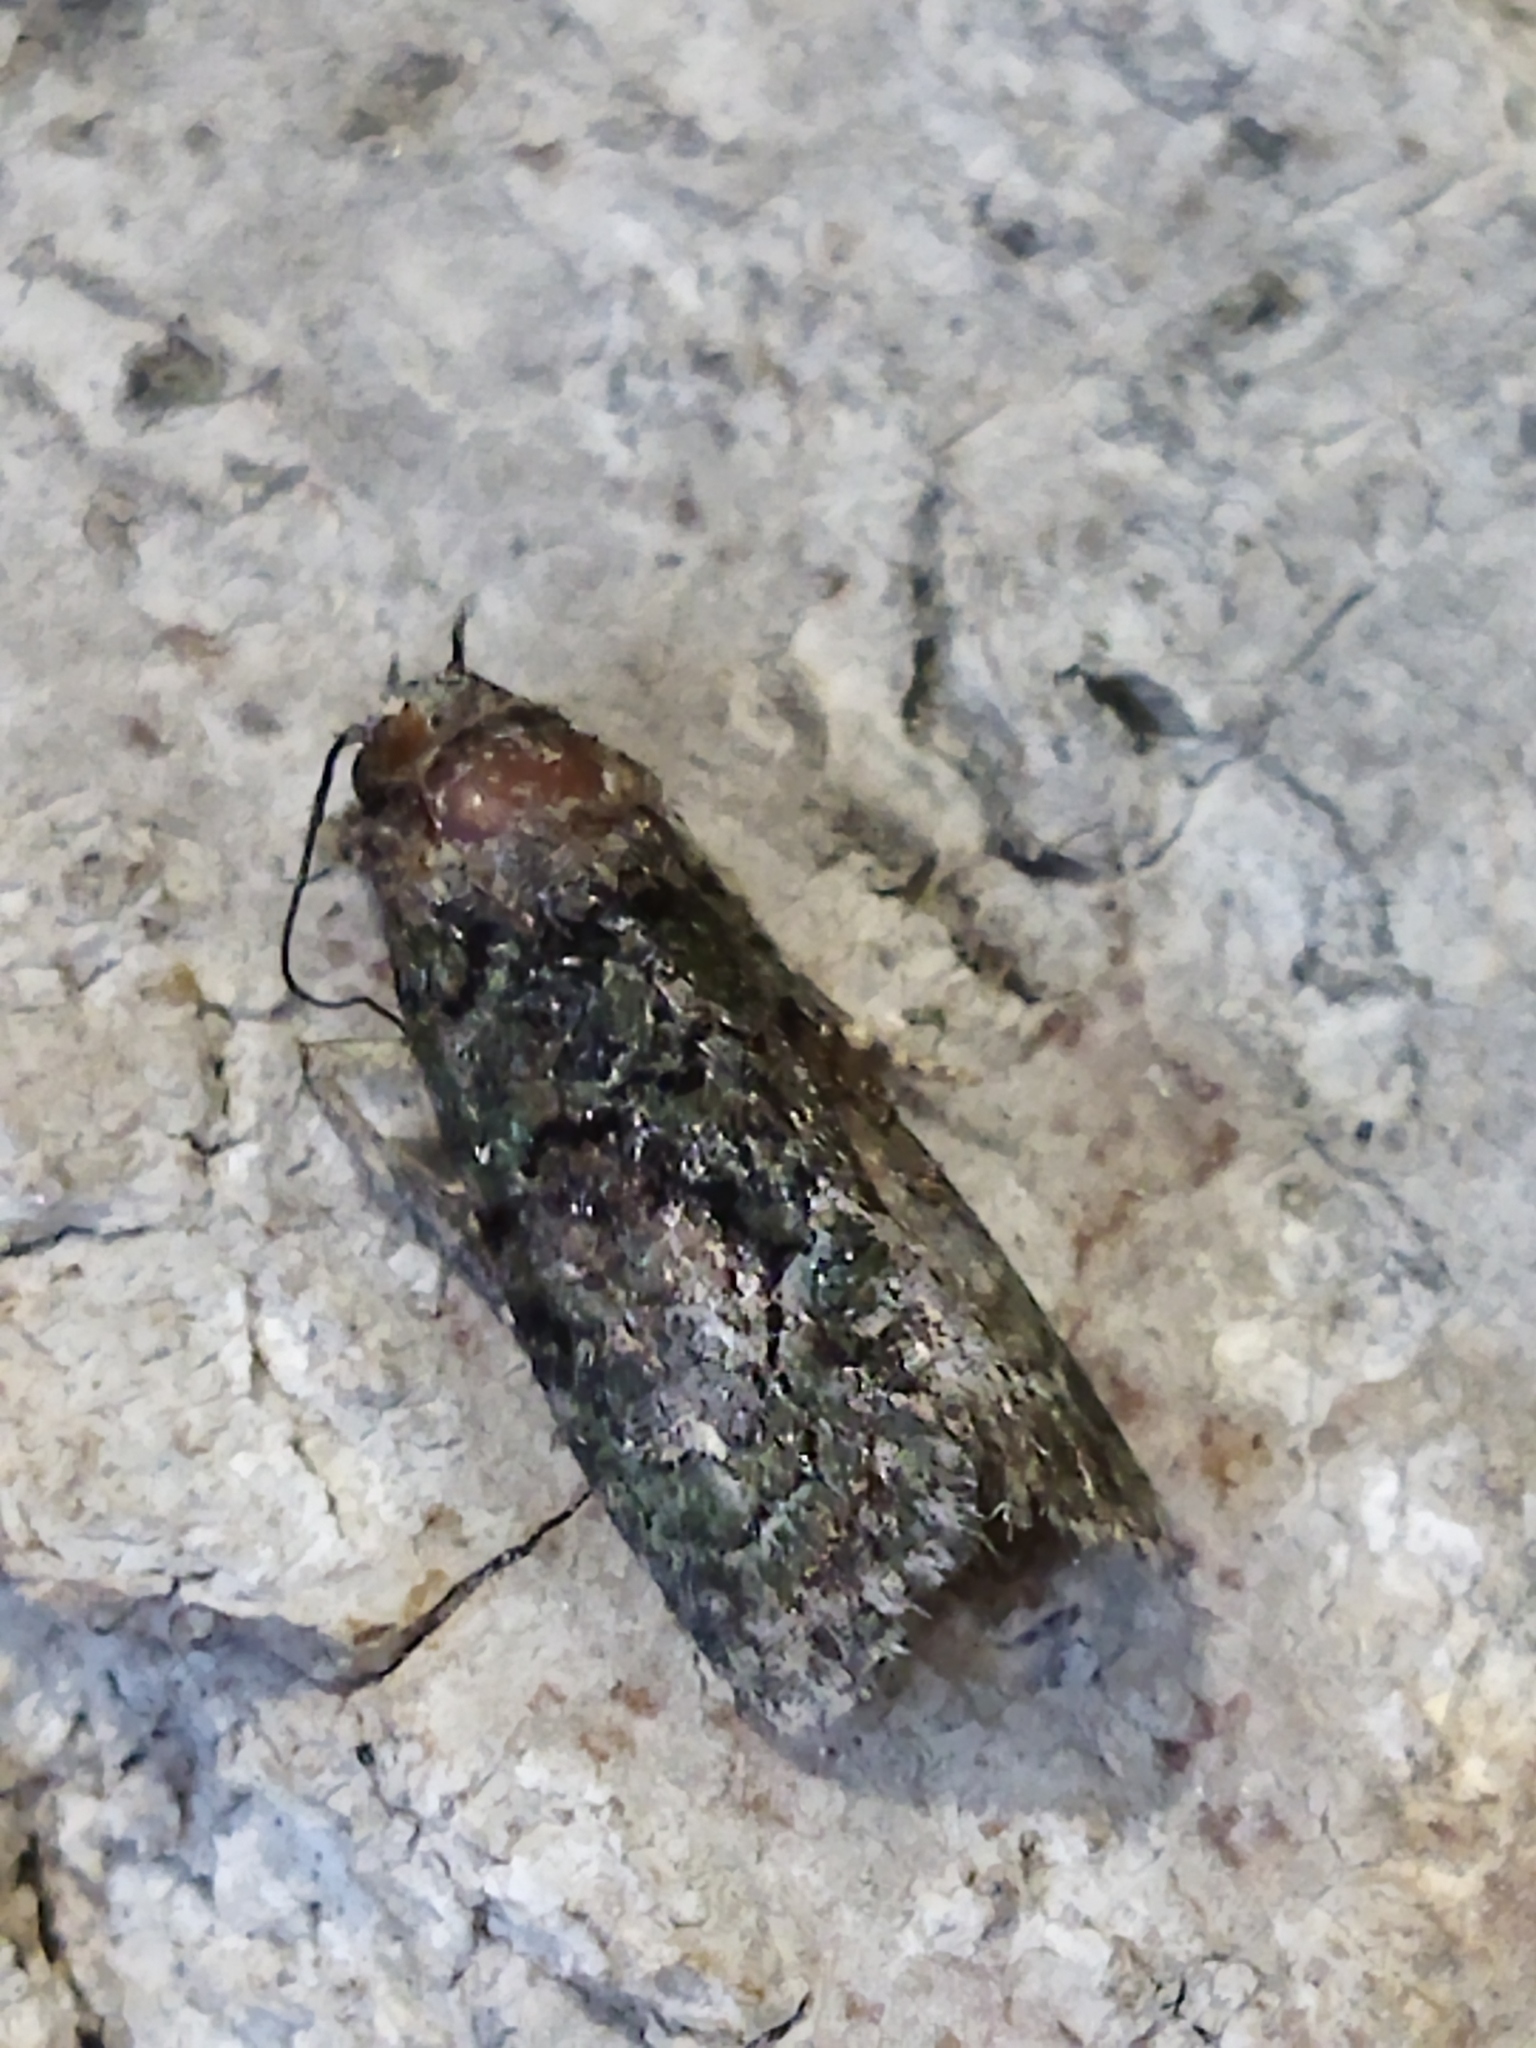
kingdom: Animalia
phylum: Arthropoda
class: Insecta
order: Lepidoptera
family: Noctuidae
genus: Cryphia
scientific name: Cryphia
